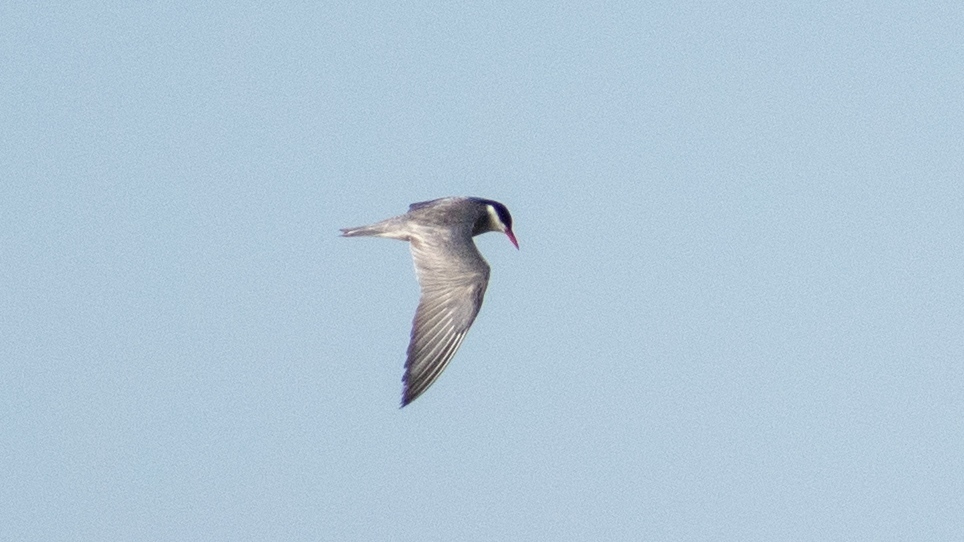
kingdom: Animalia
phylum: Chordata
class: Aves
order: Charadriiformes
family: Laridae
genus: Chlidonias
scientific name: Chlidonias hybrida
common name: Whiskered tern
